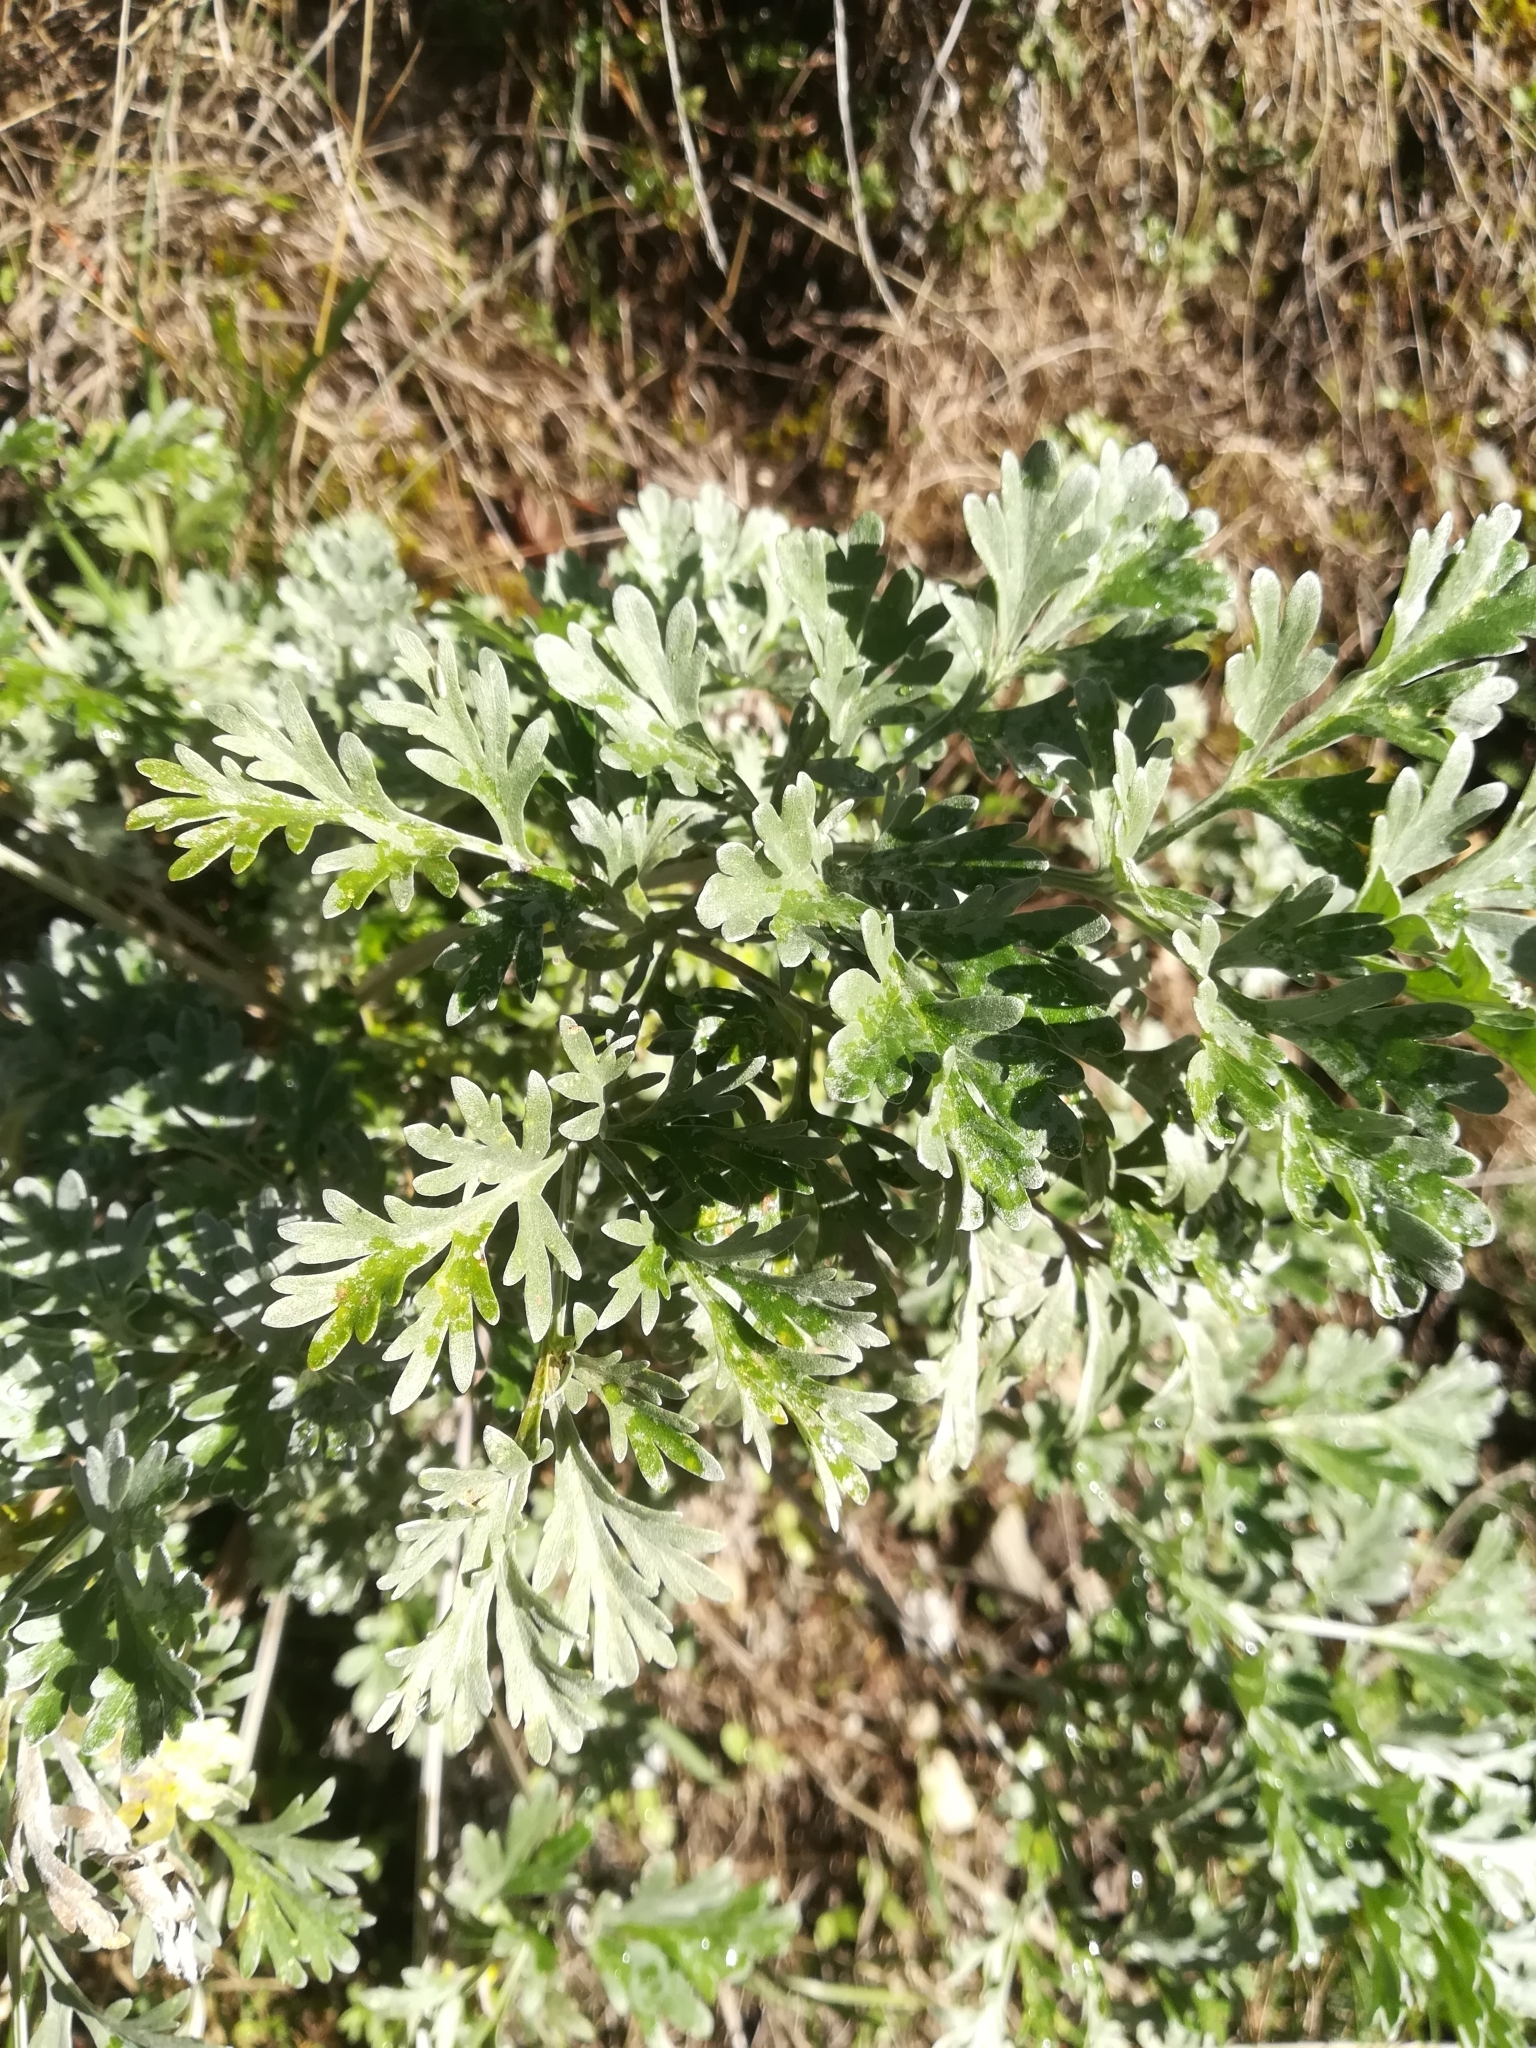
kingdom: Plantae
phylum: Tracheophyta
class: Magnoliopsida
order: Asterales
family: Asteraceae
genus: Artemisia
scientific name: Artemisia absinthium
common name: Wormwood
